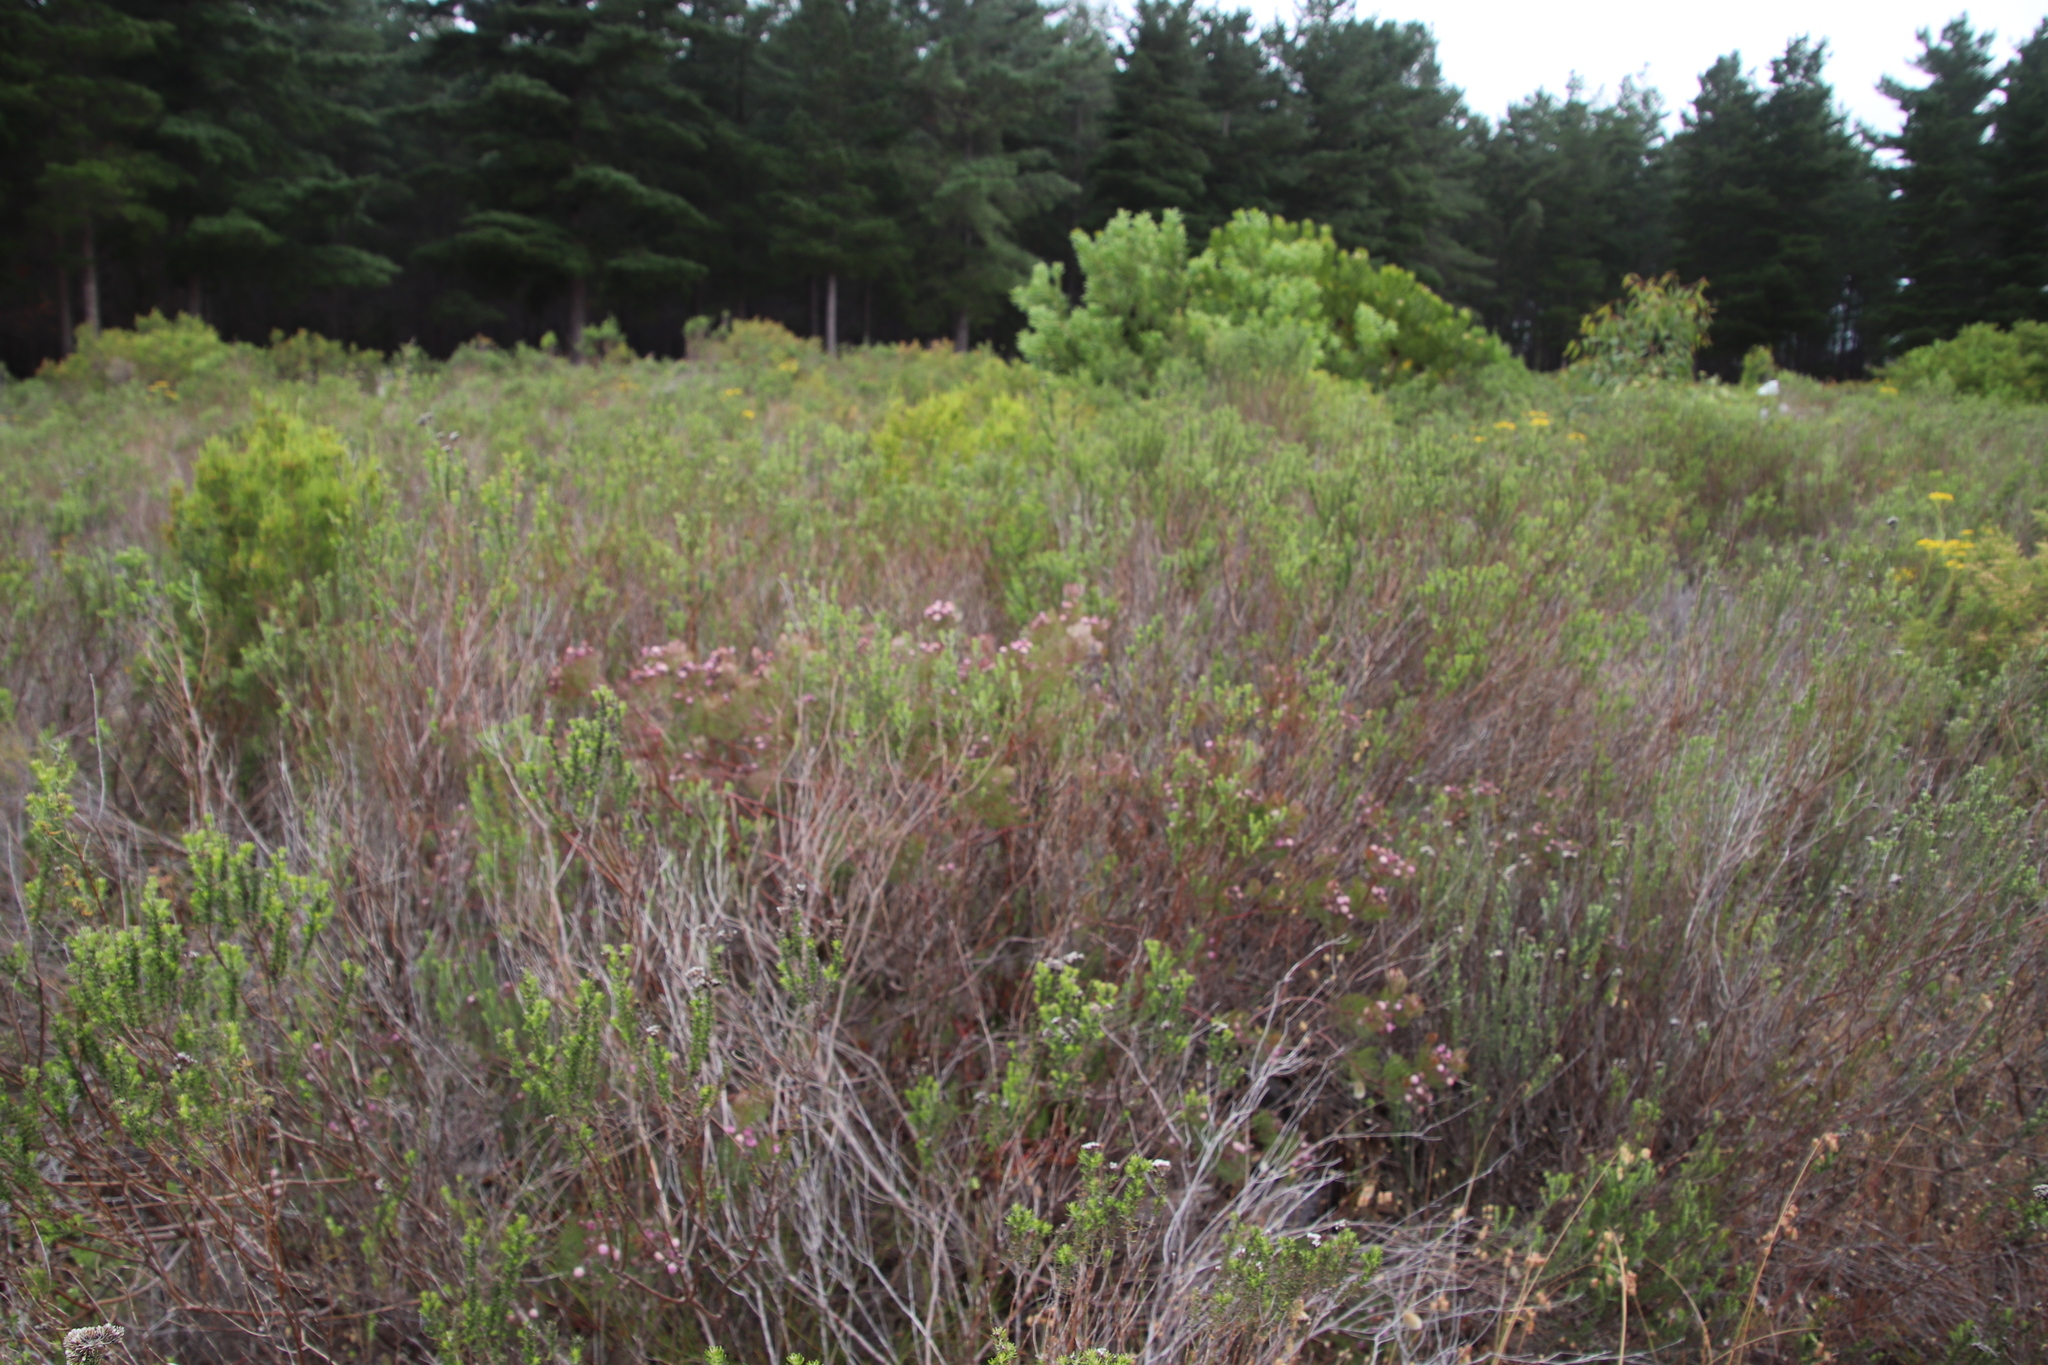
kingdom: Plantae
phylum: Tracheophyta
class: Magnoliopsida
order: Proteales
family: Proteaceae
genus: Serruria
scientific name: Serruria fasciflora
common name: Common pin spiderhead
